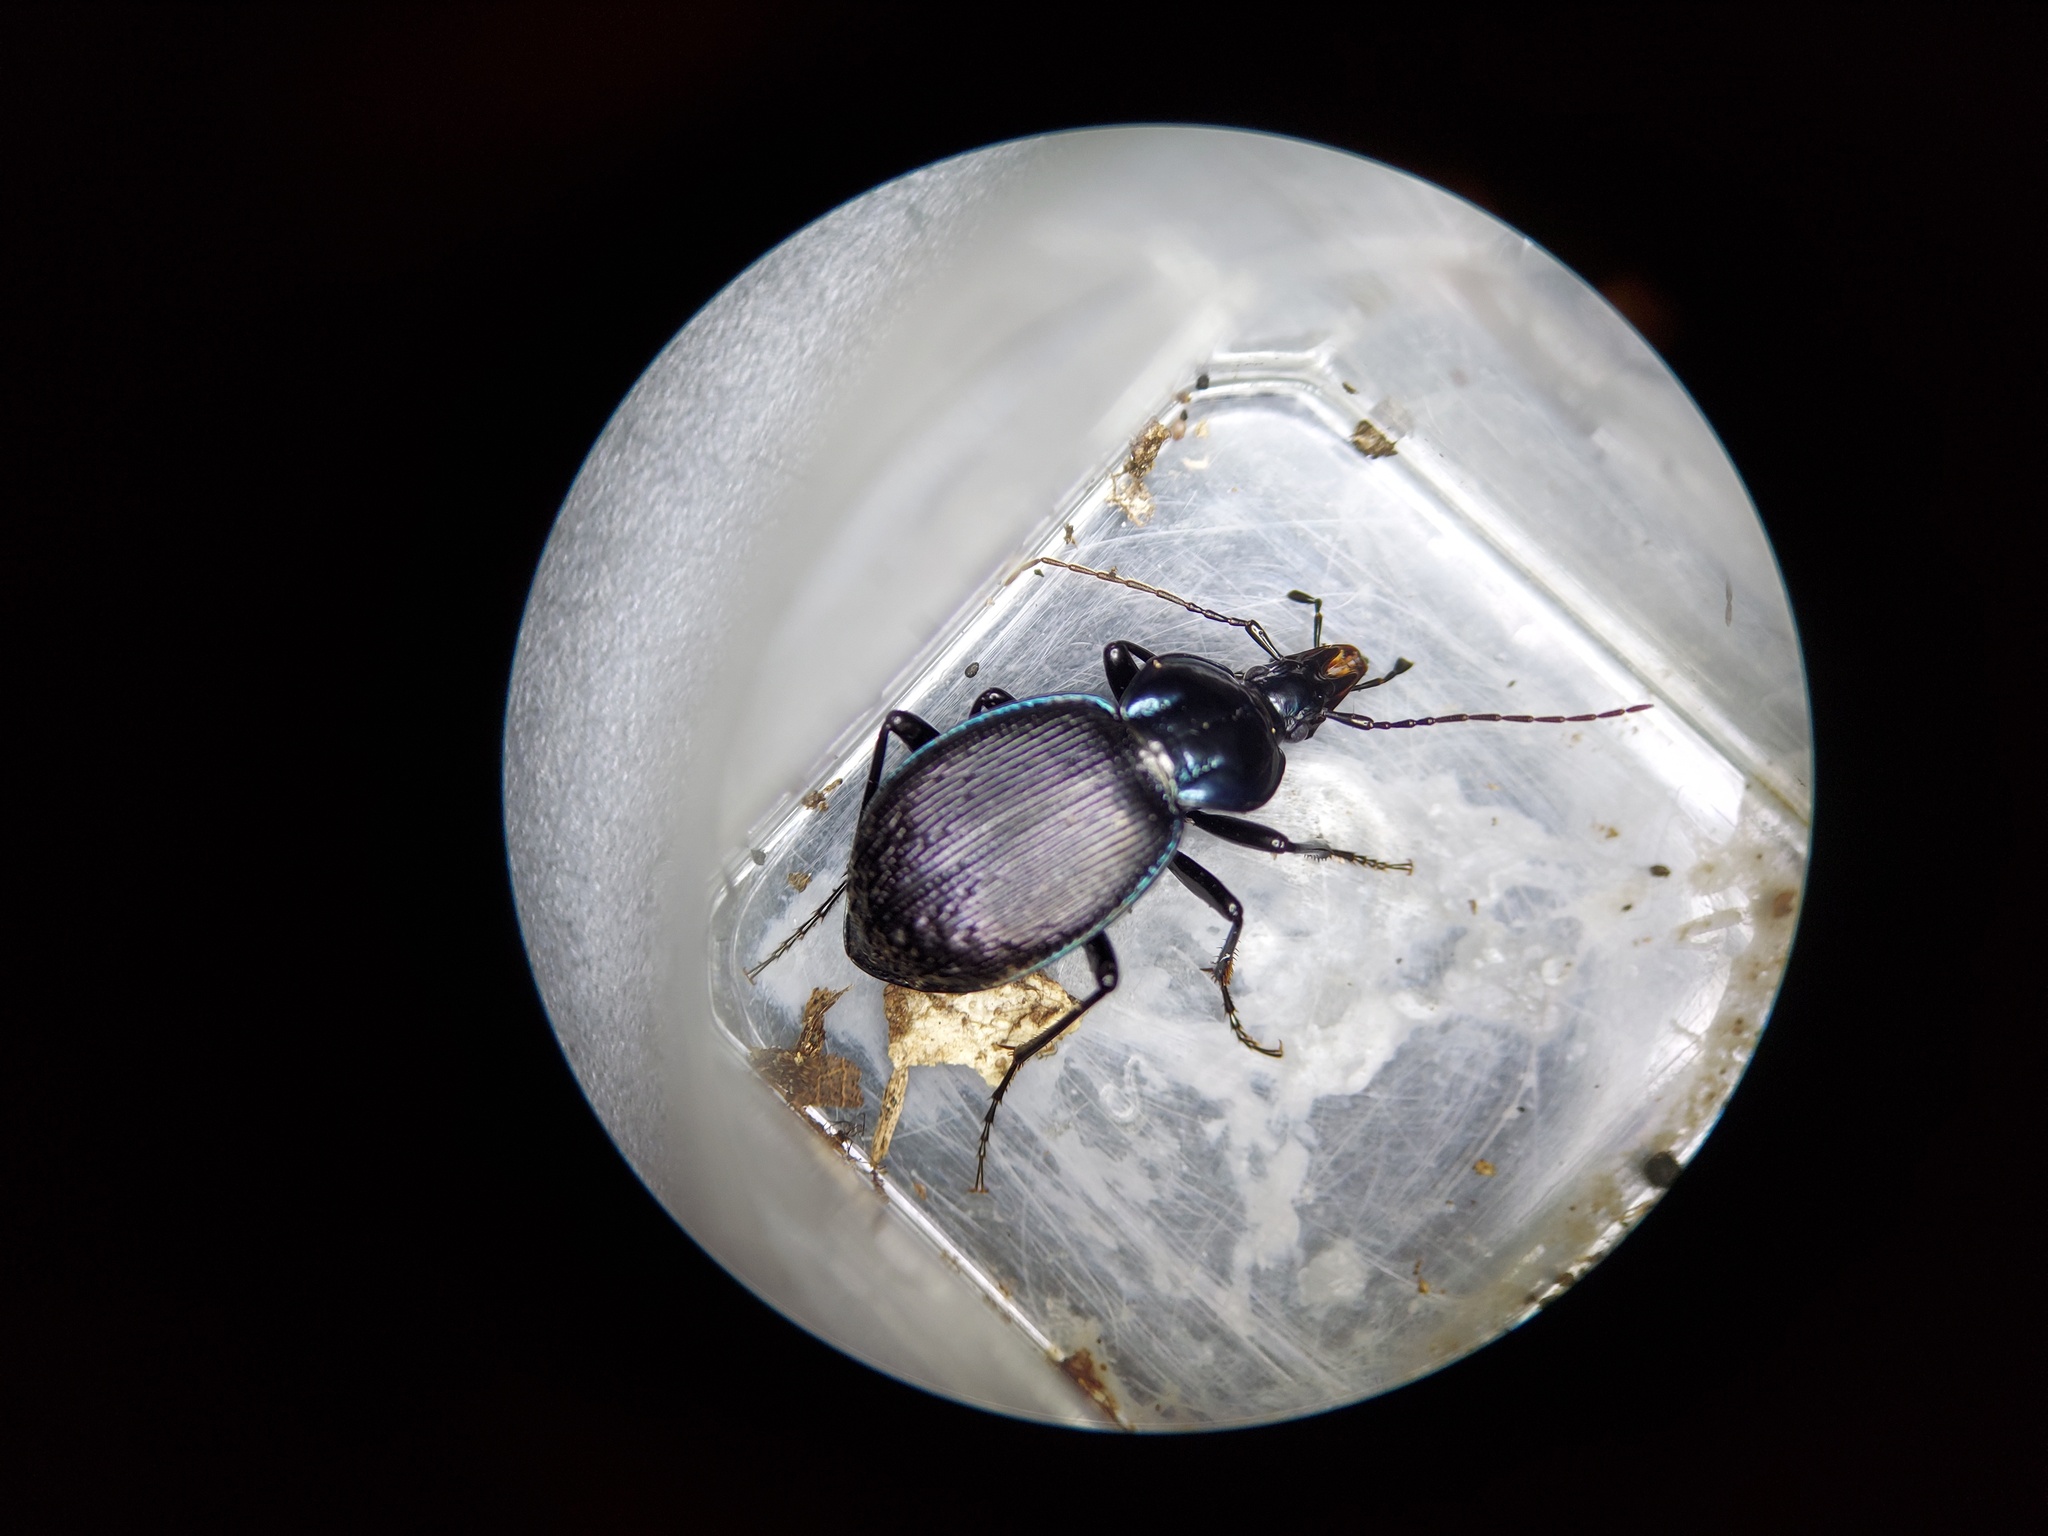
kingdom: Animalia
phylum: Arthropoda
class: Insecta
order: Coleoptera
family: Carabidae
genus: Sphaeroderus
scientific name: Sphaeroderus stenostomus
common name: Small snail-eating ground beetle
